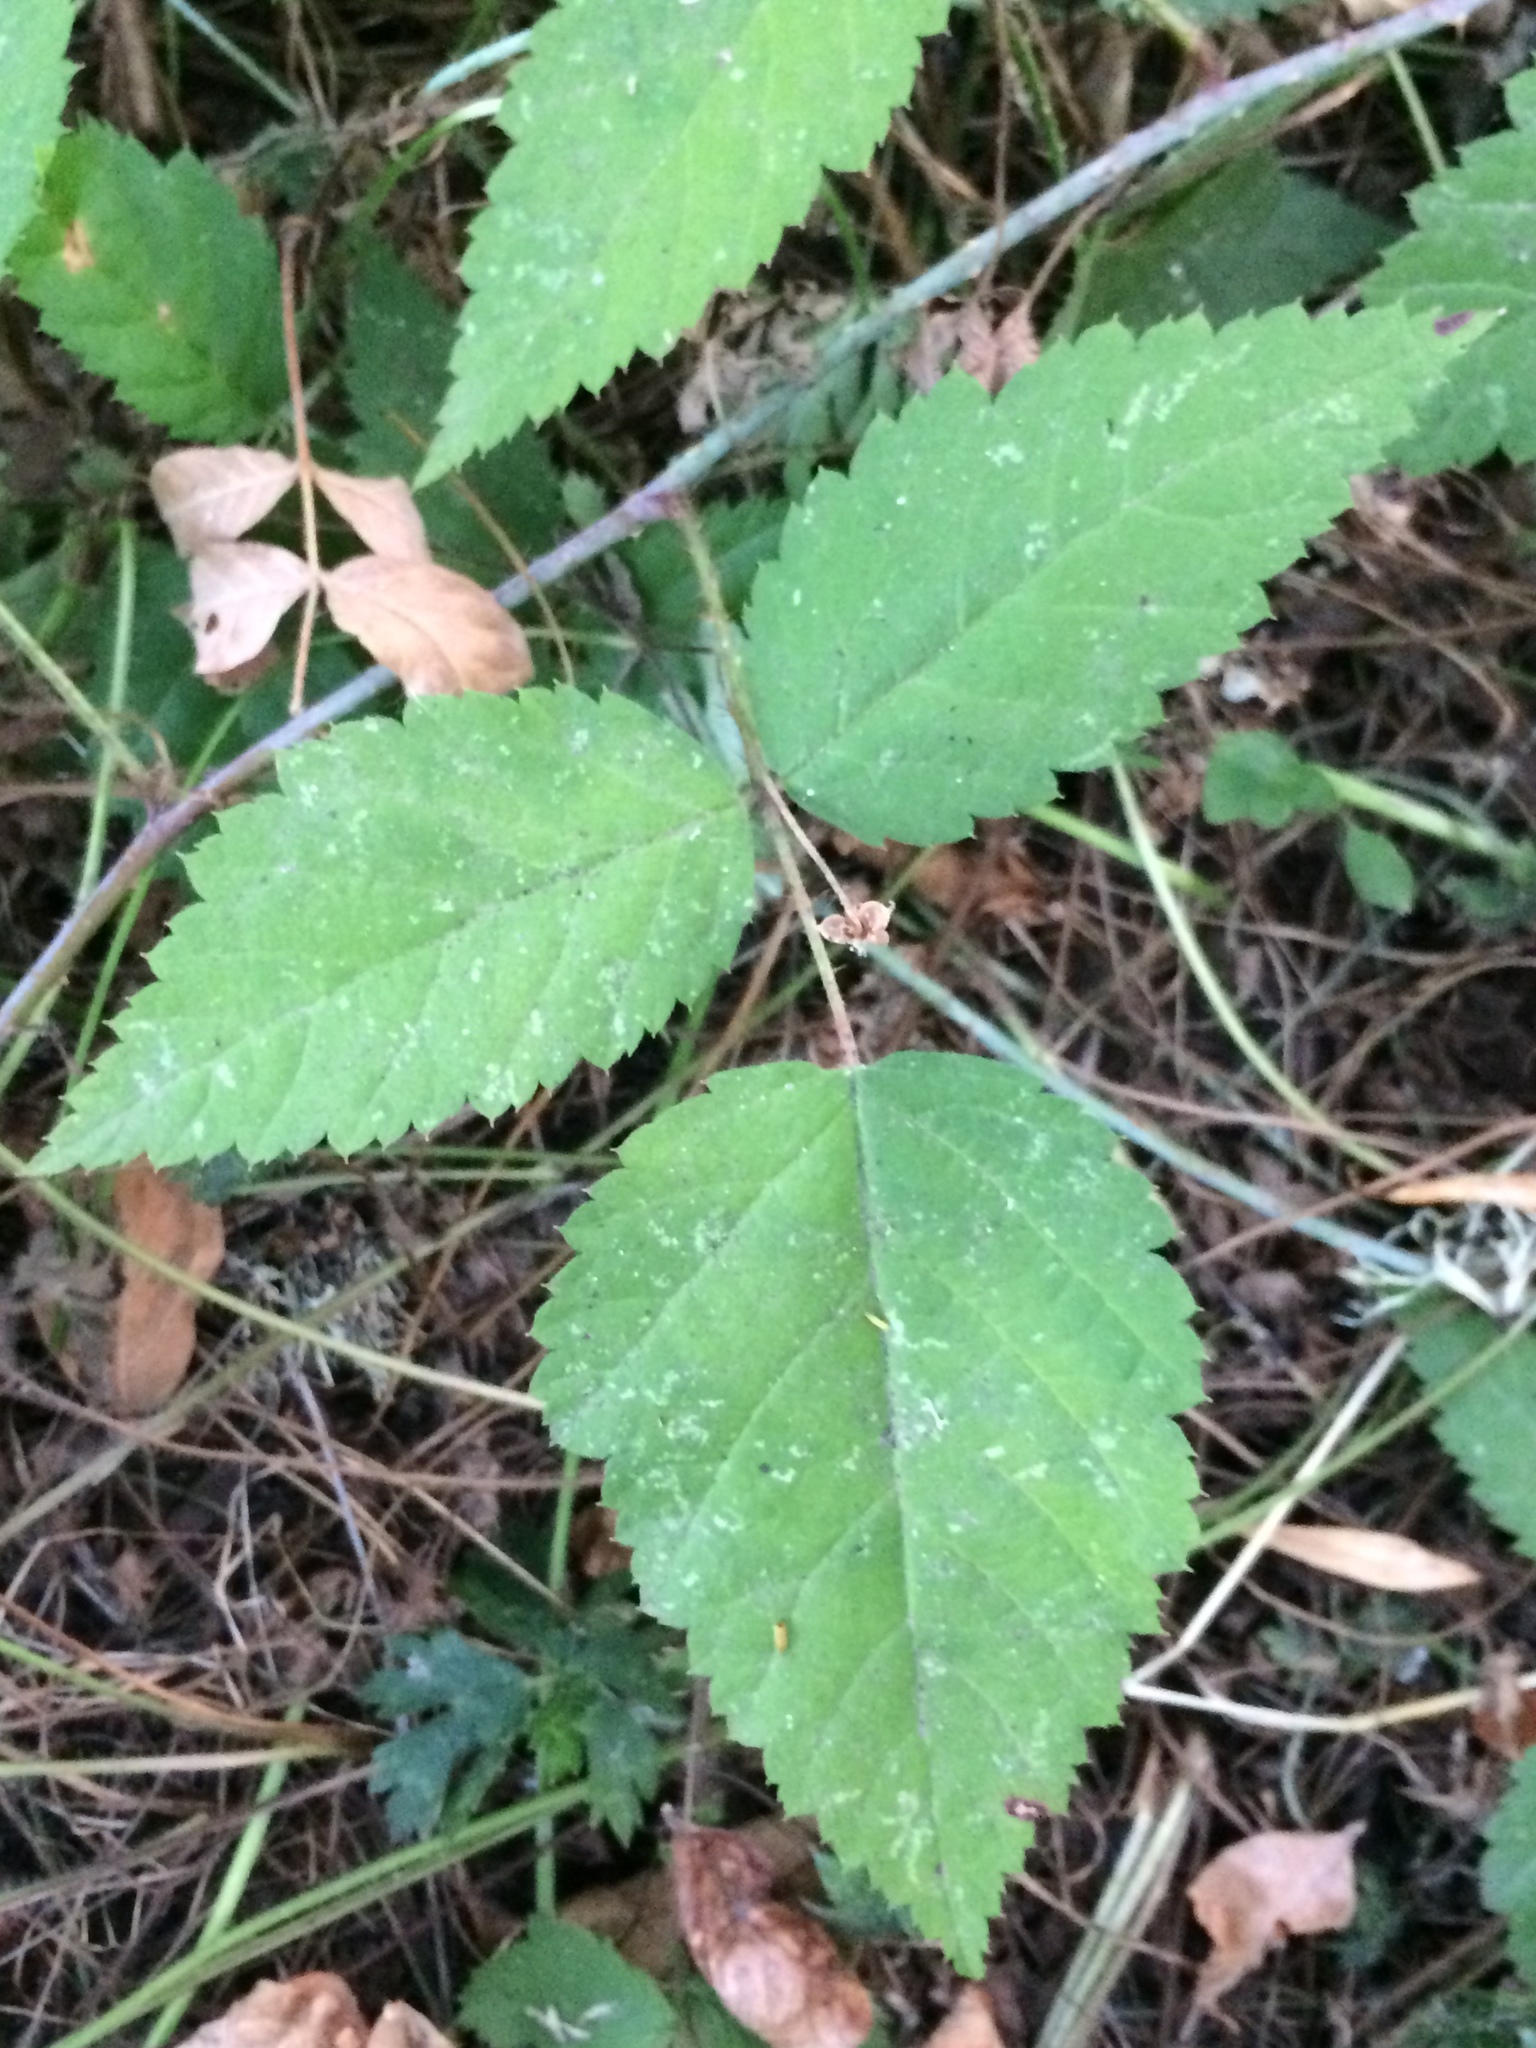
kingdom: Plantae
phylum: Tracheophyta
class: Magnoliopsida
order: Rosales
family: Rosaceae
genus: Rubus
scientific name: Rubus ursinus
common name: Pacific blackberry
